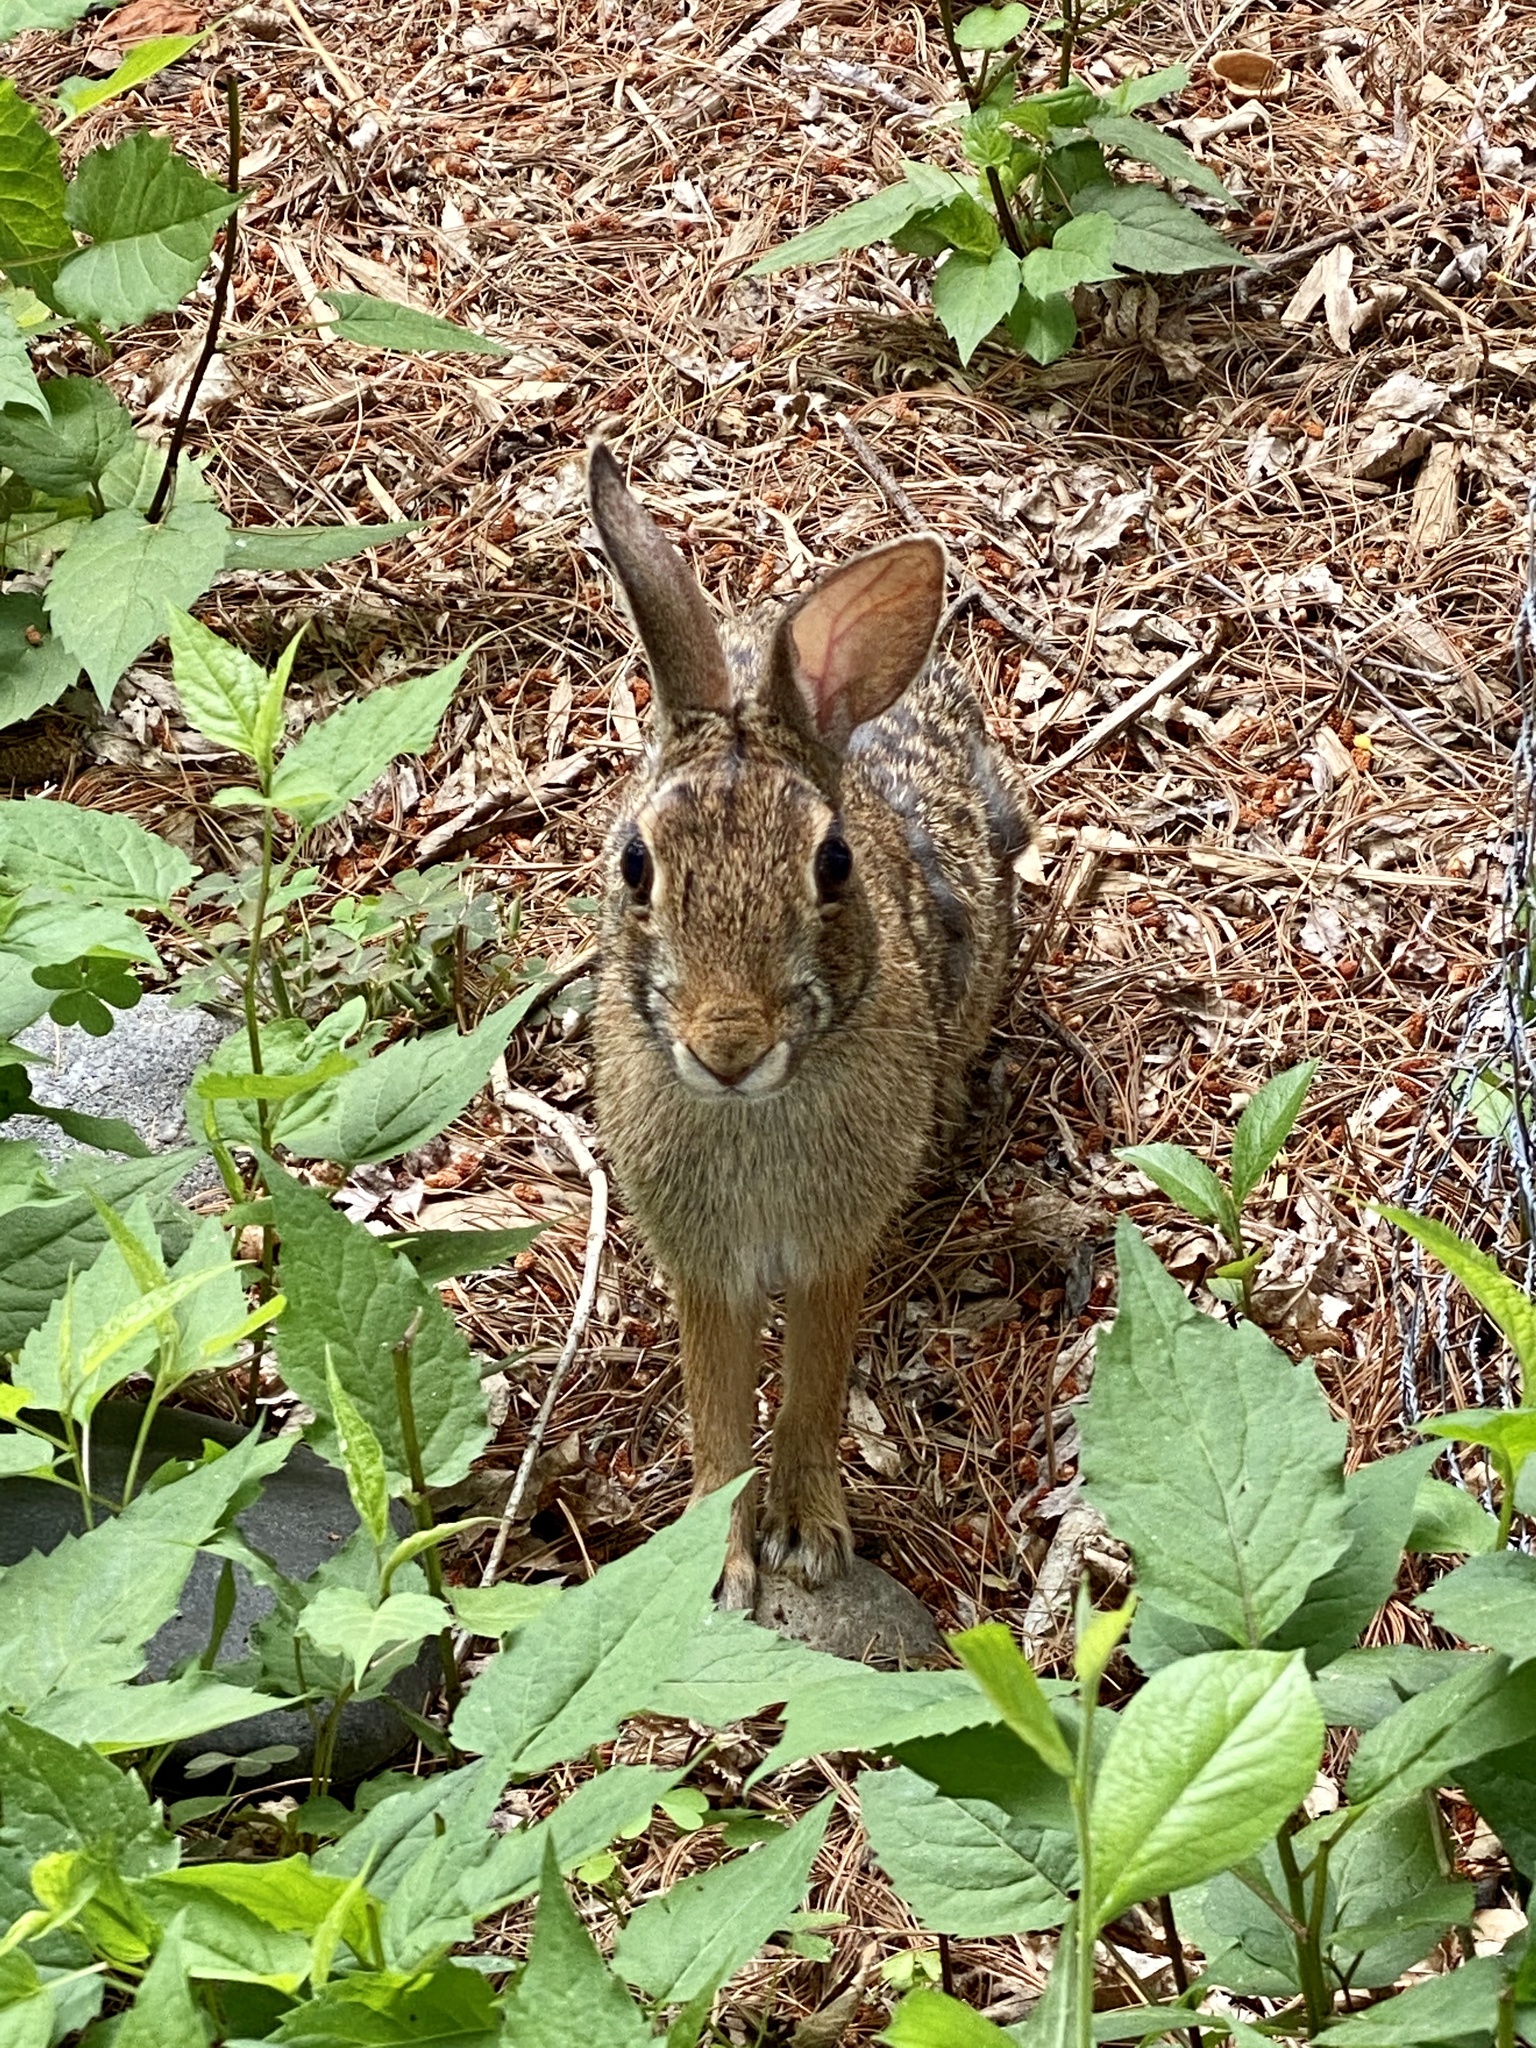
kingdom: Animalia
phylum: Chordata
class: Mammalia
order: Lagomorpha
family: Leporidae
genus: Sylvilagus
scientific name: Sylvilagus floridanus
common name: Eastern cottontail
